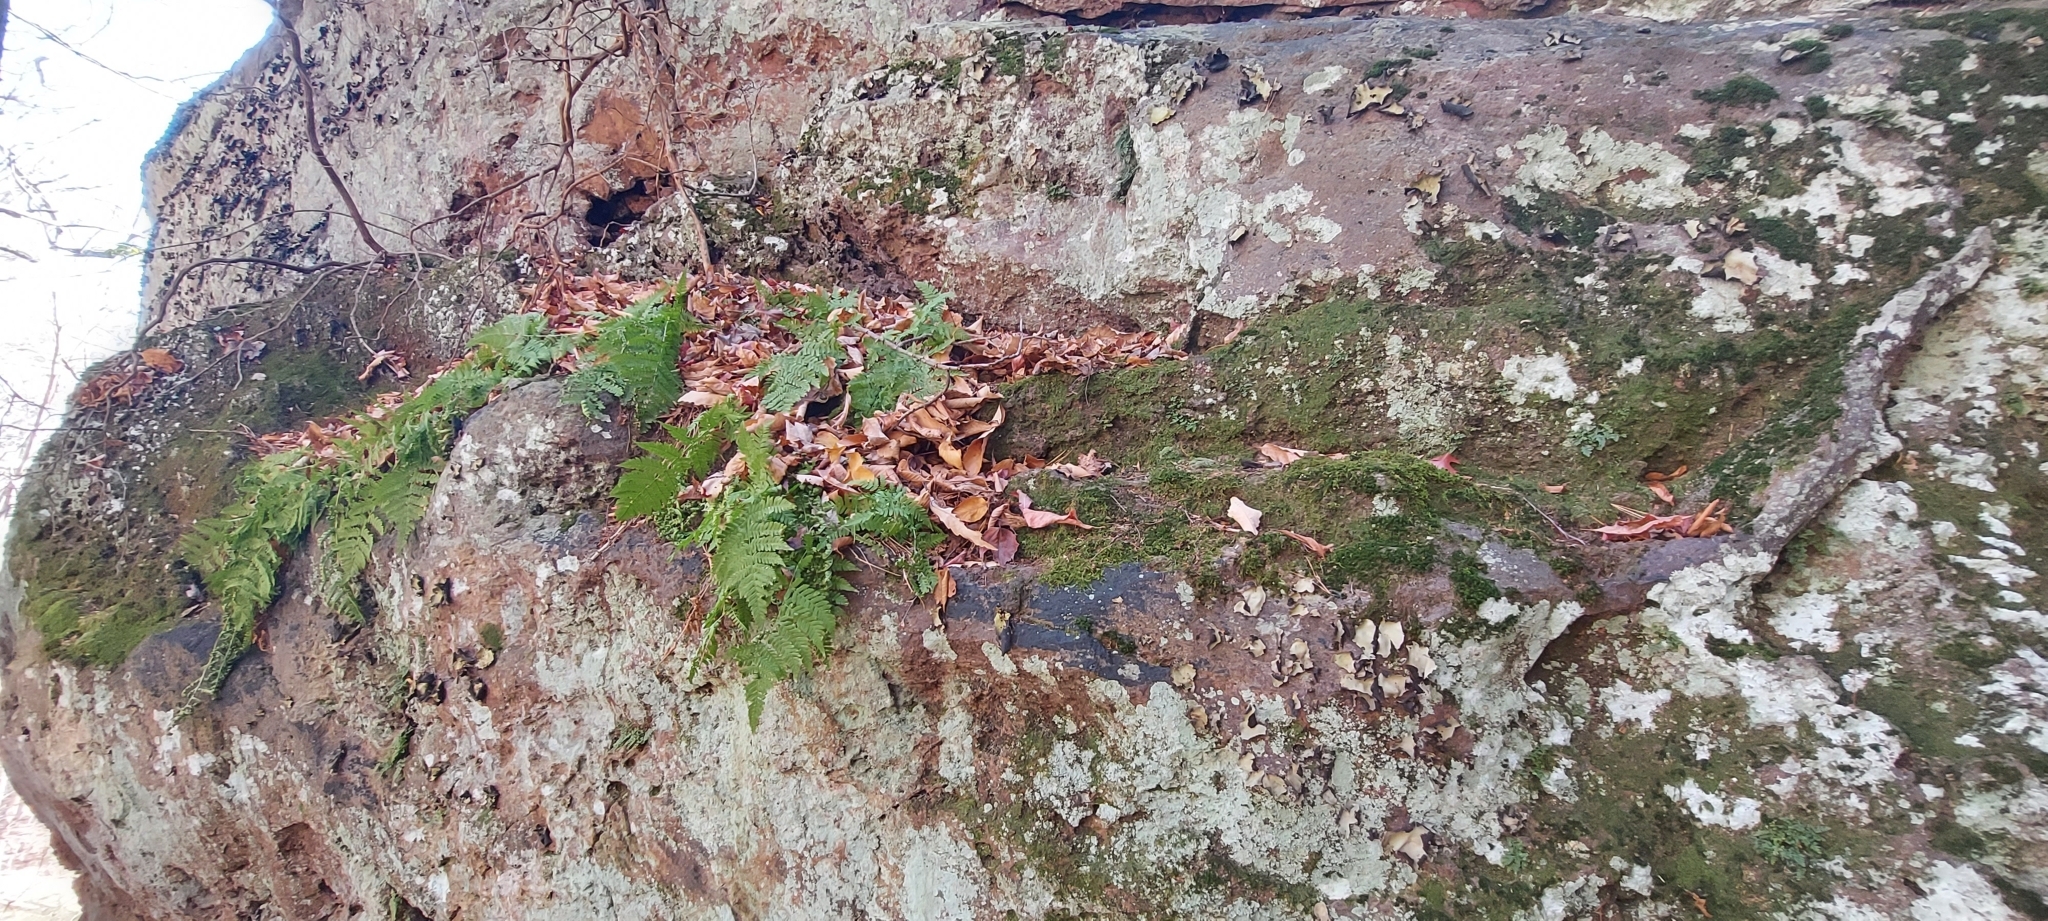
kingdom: Plantae
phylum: Tracheophyta
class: Polypodiopsida
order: Polypodiales
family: Dryopteridaceae
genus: Dryopteris
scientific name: Dryopteris marginalis
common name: Marginal wood fern
